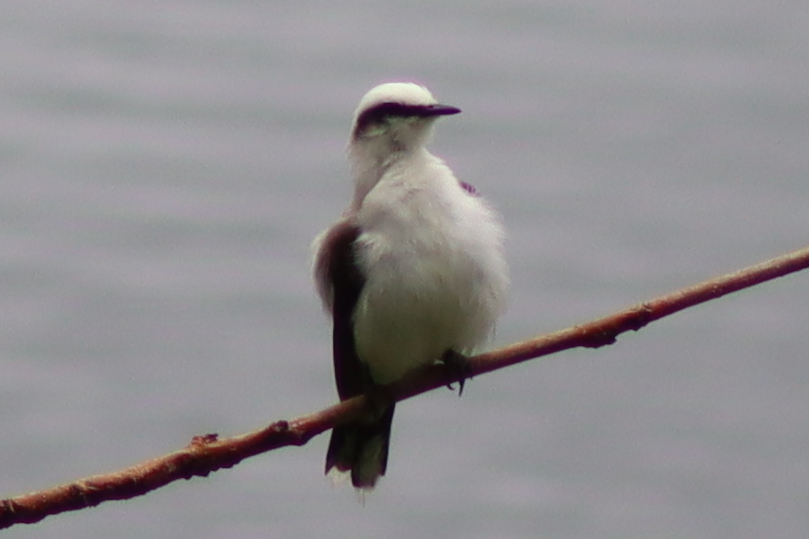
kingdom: Animalia
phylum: Chordata
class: Aves
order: Passeriformes
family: Tyrannidae
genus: Fluvicola
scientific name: Fluvicola nengeta
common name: Masked water tyrant
